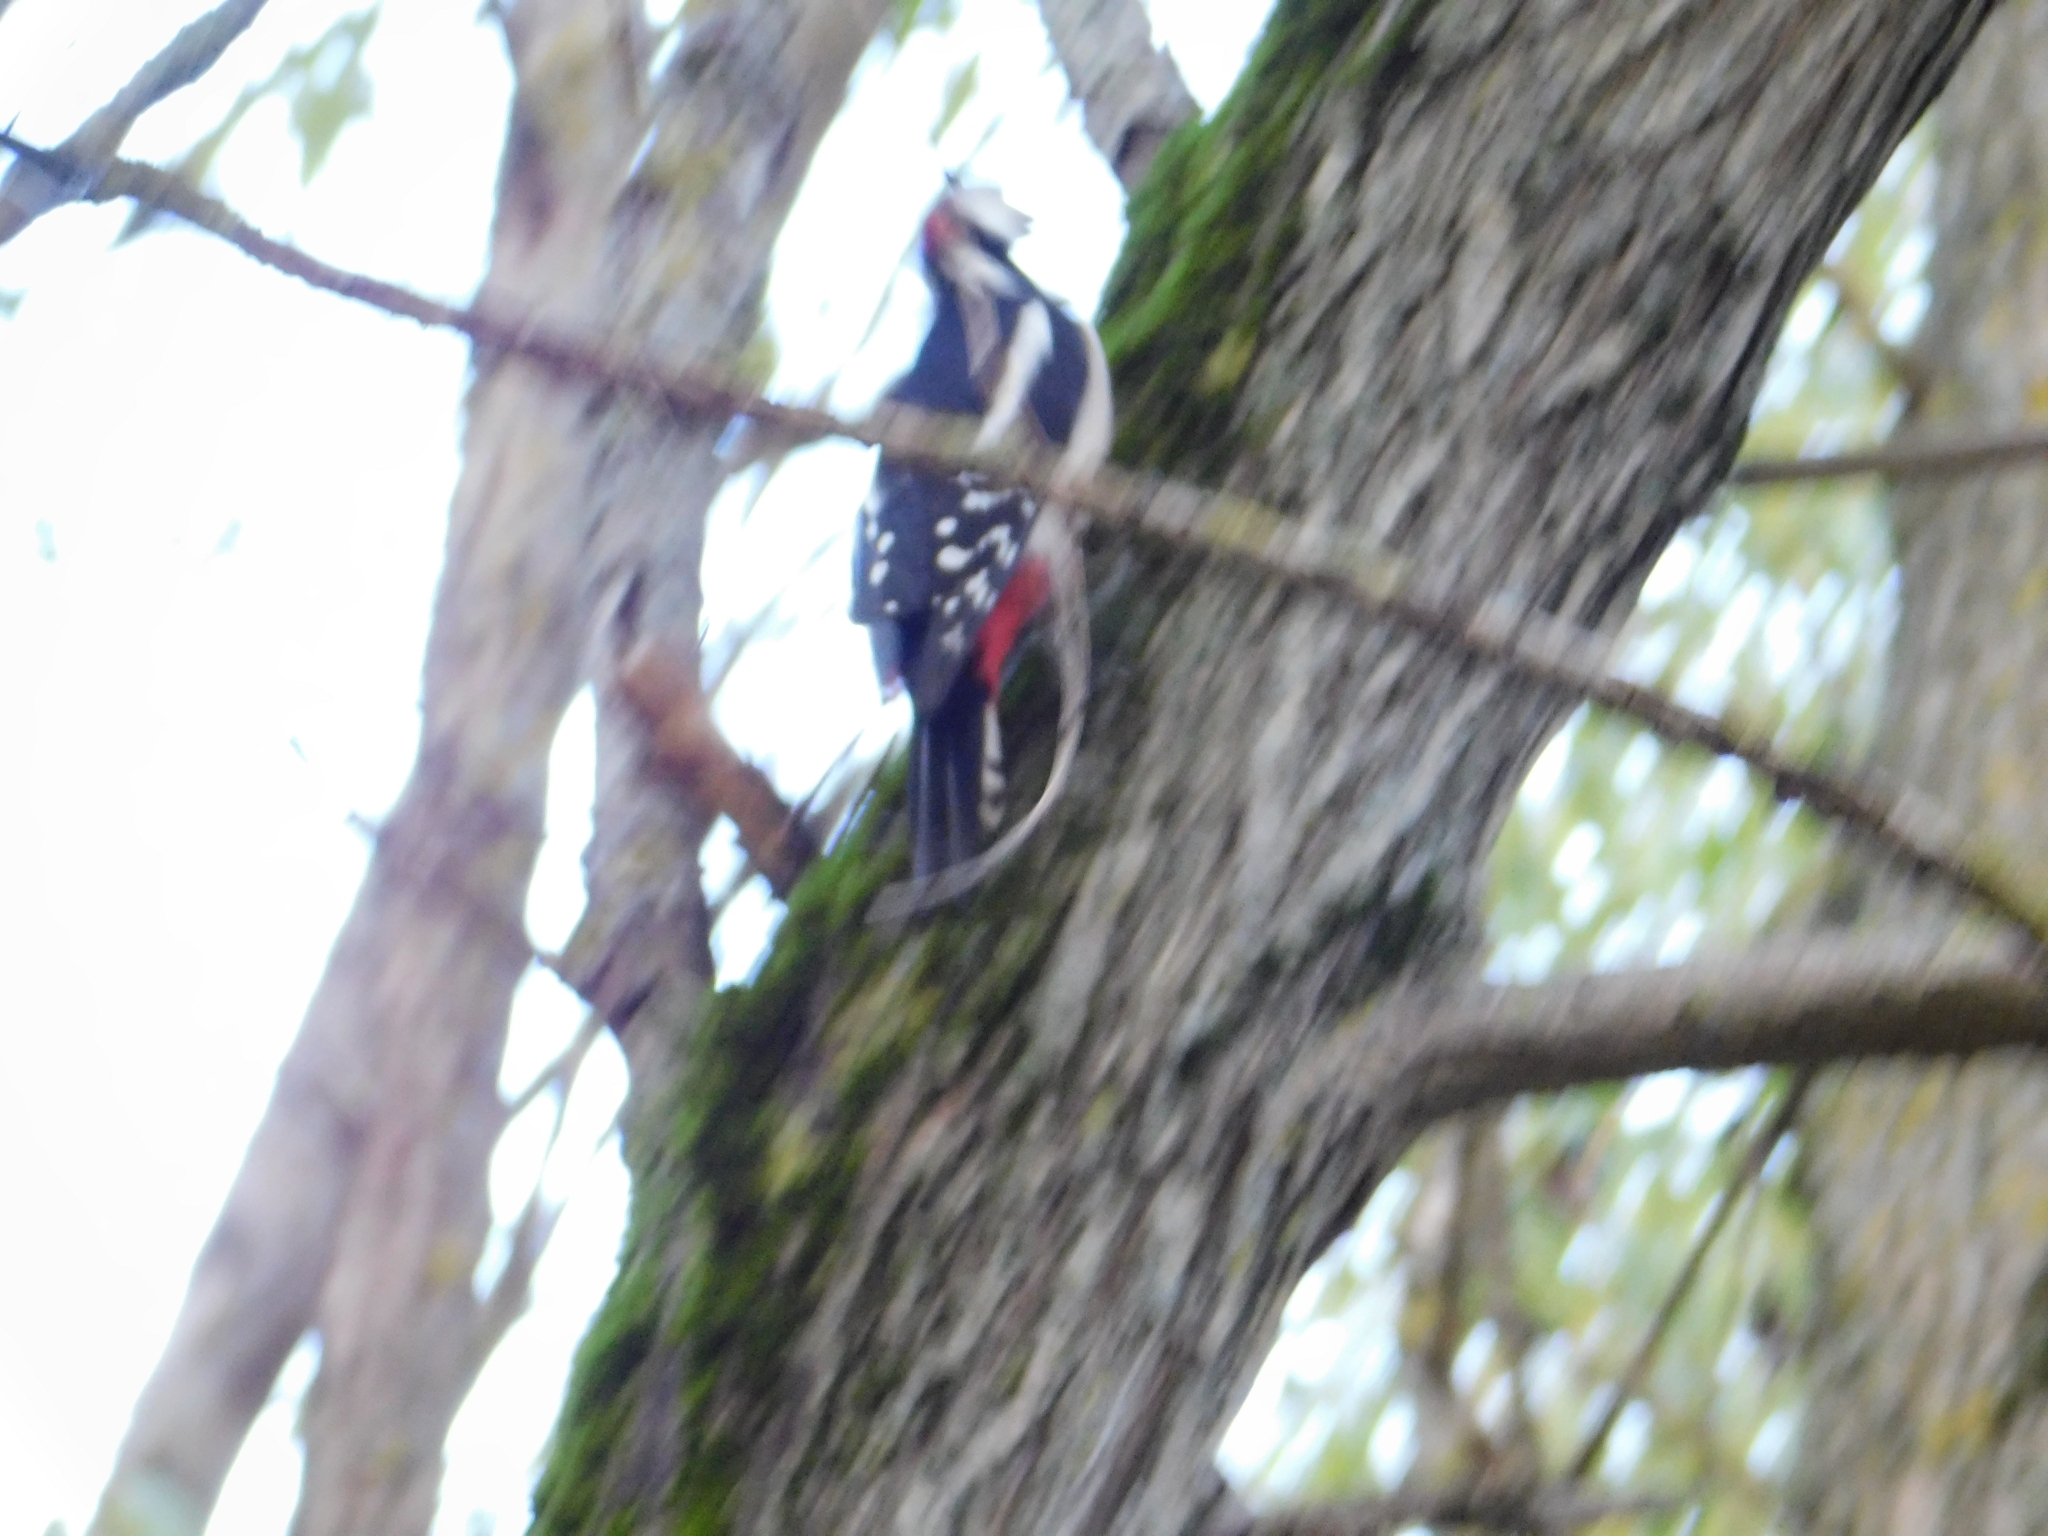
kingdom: Animalia
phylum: Chordata
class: Aves
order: Piciformes
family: Picidae
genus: Dendrocopos
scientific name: Dendrocopos major
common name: Great spotted woodpecker
